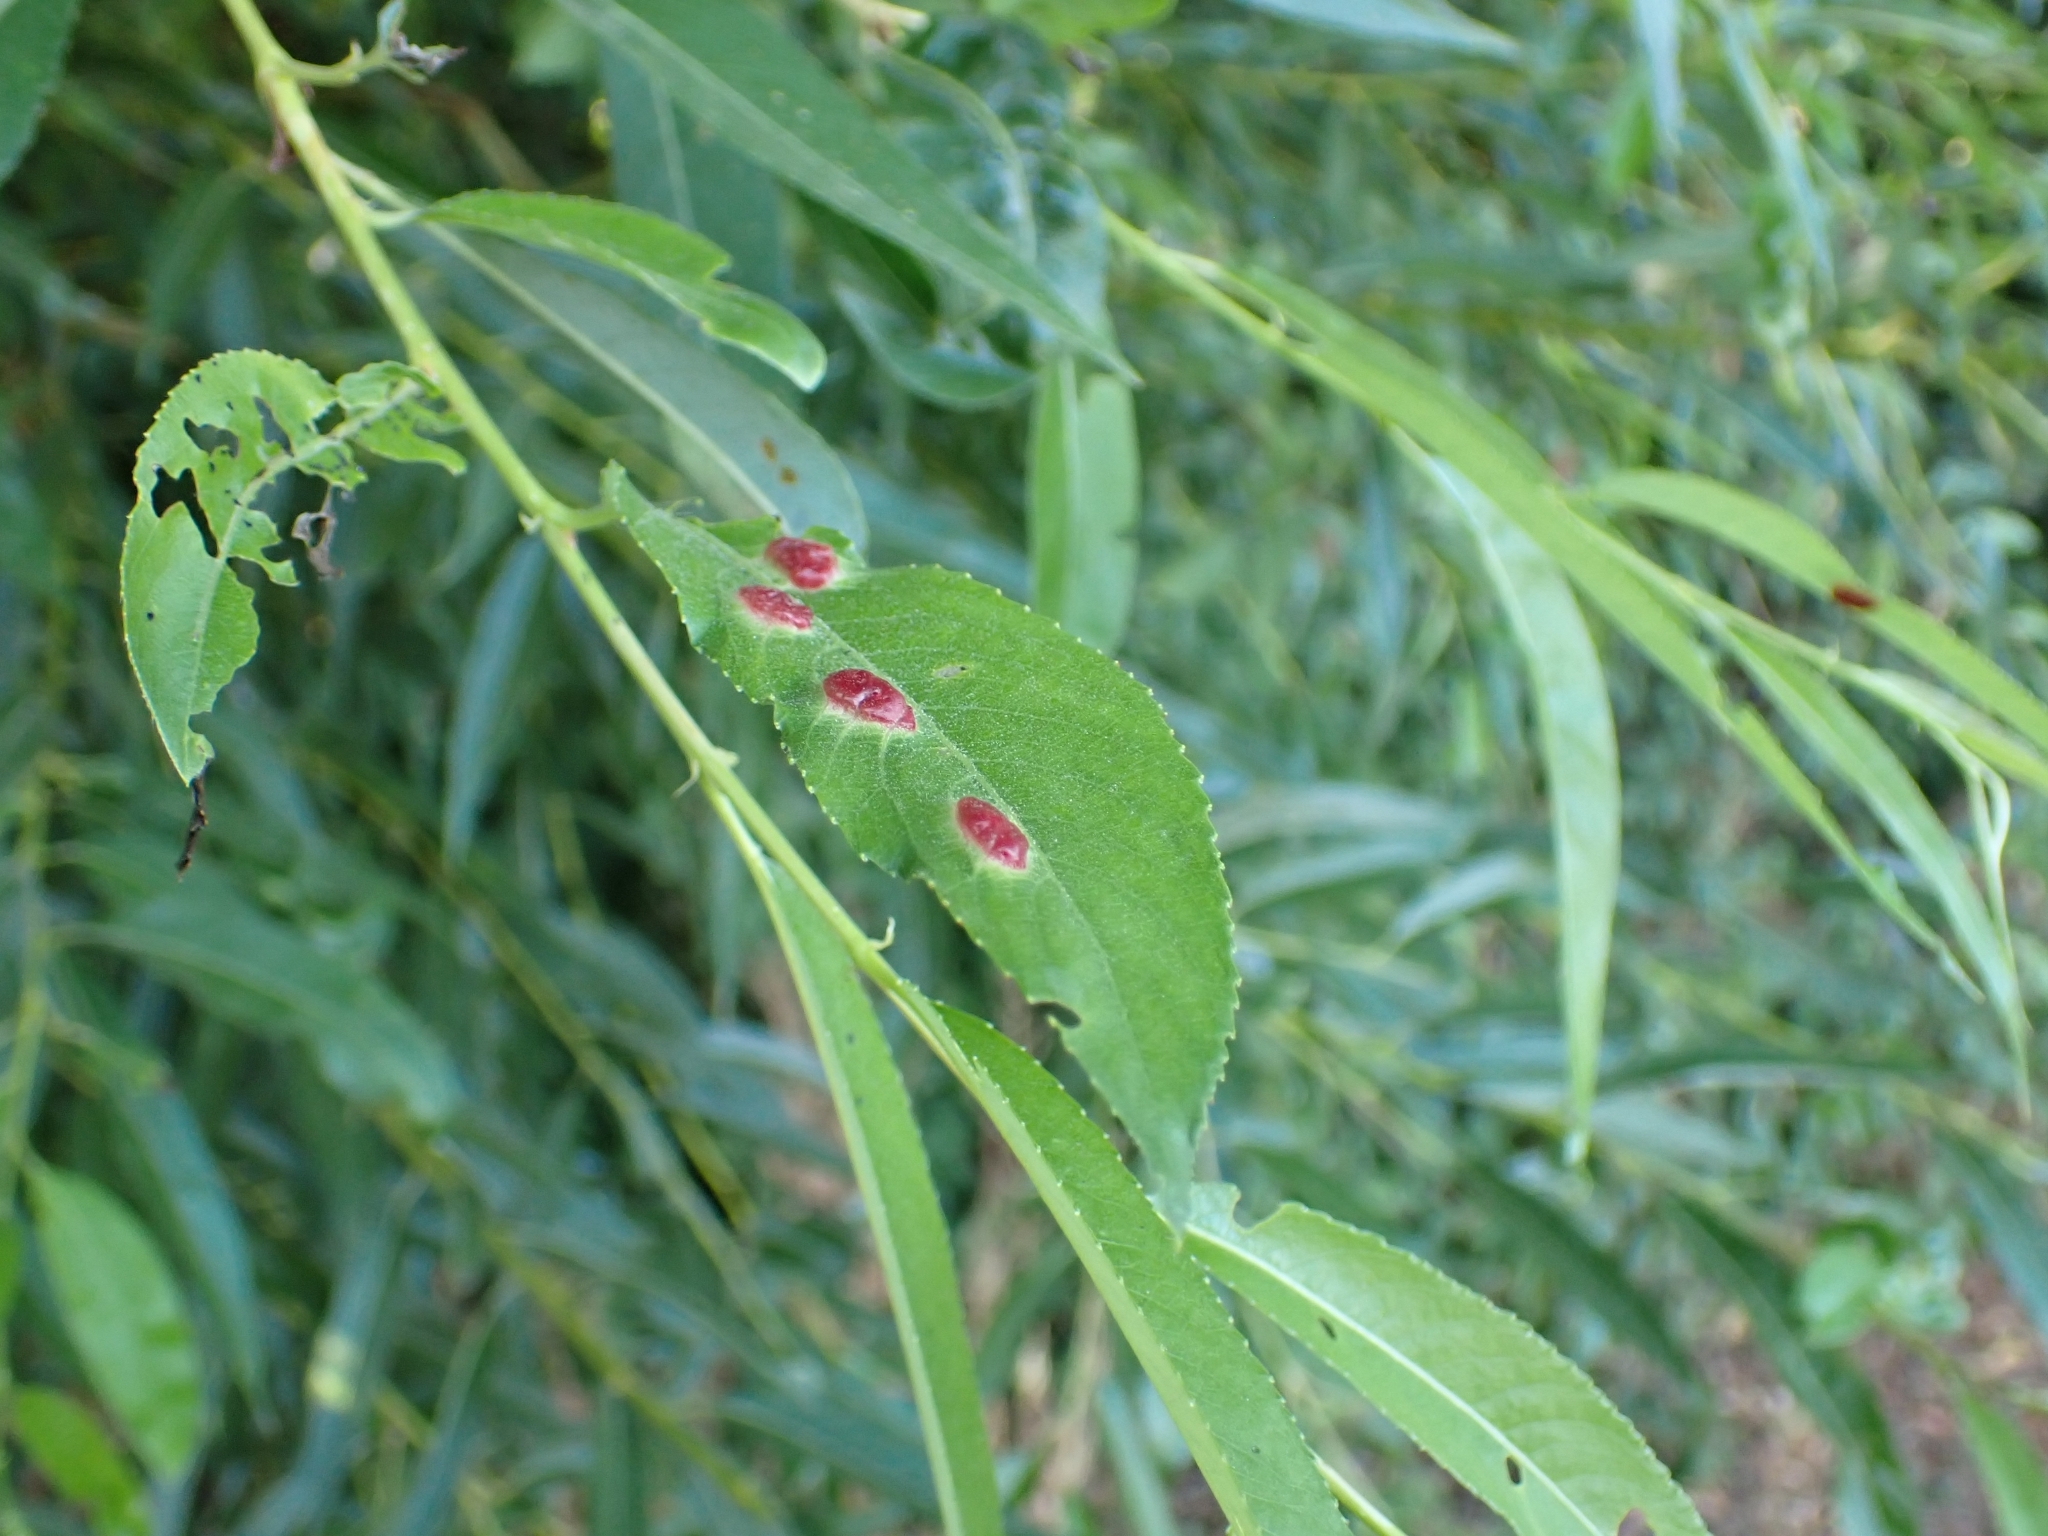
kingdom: Animalia
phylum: Arthropoda
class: Insecta
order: Hymenoptera
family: Tenthredinidae
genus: Pontania
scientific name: Pontania proxima
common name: Common sawfly
